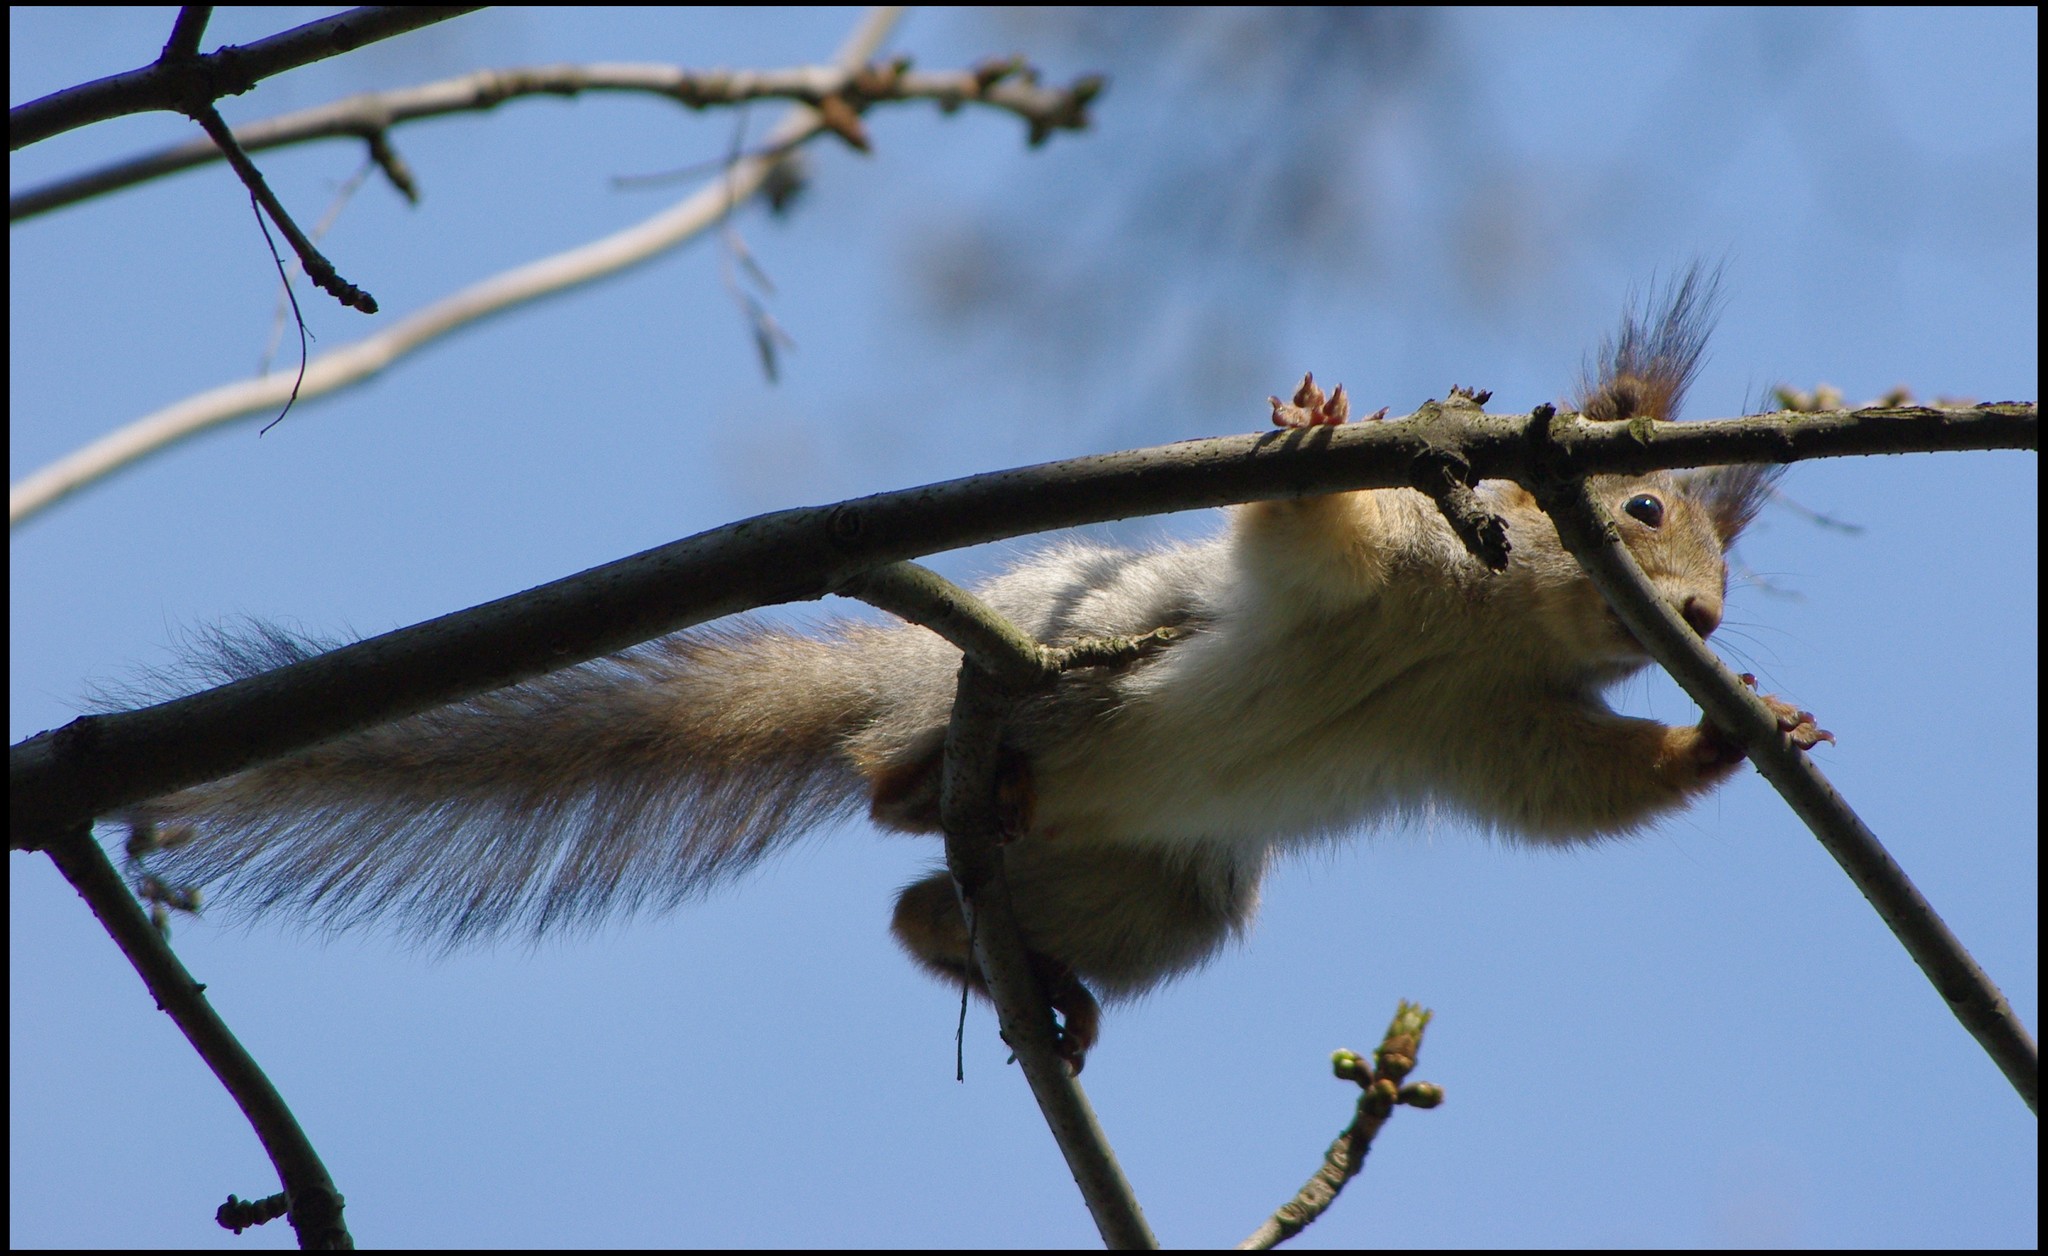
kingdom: Animalia
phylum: Chordata
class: Mammalia
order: Rodentia
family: Sciuridae
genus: Sciurus
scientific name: Sciurus vulgaris
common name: Eurasian red squirrel
